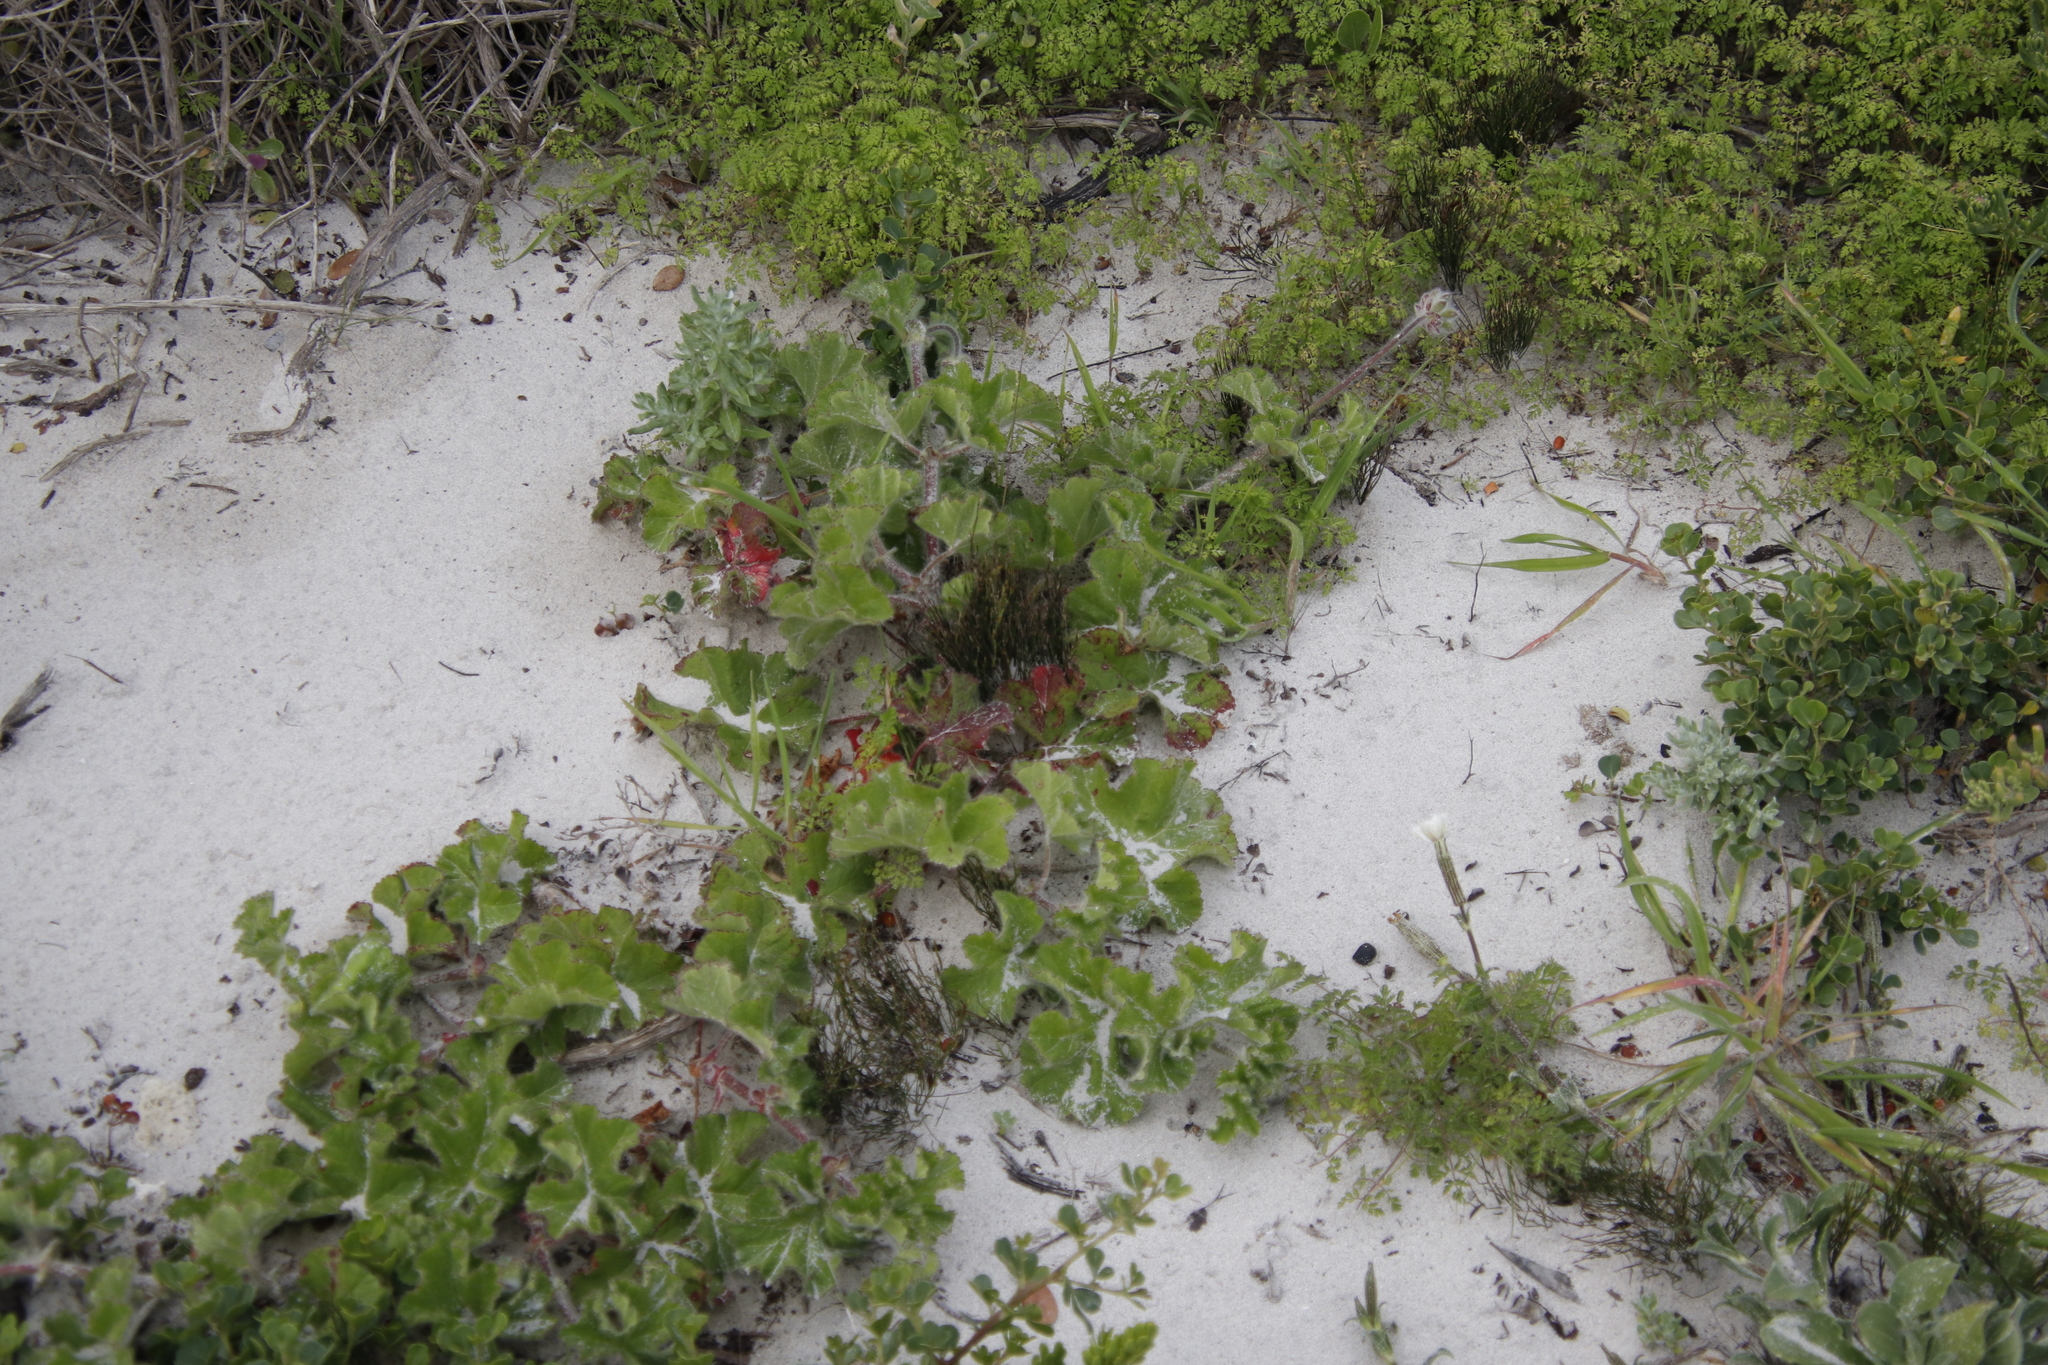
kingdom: Plantae
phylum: Tracheophyta
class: Magnoliopsida
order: Geraniales
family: Geraniaceae
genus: Pelargonium
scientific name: Pelargonium capitatum
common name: Rose scented geranium
